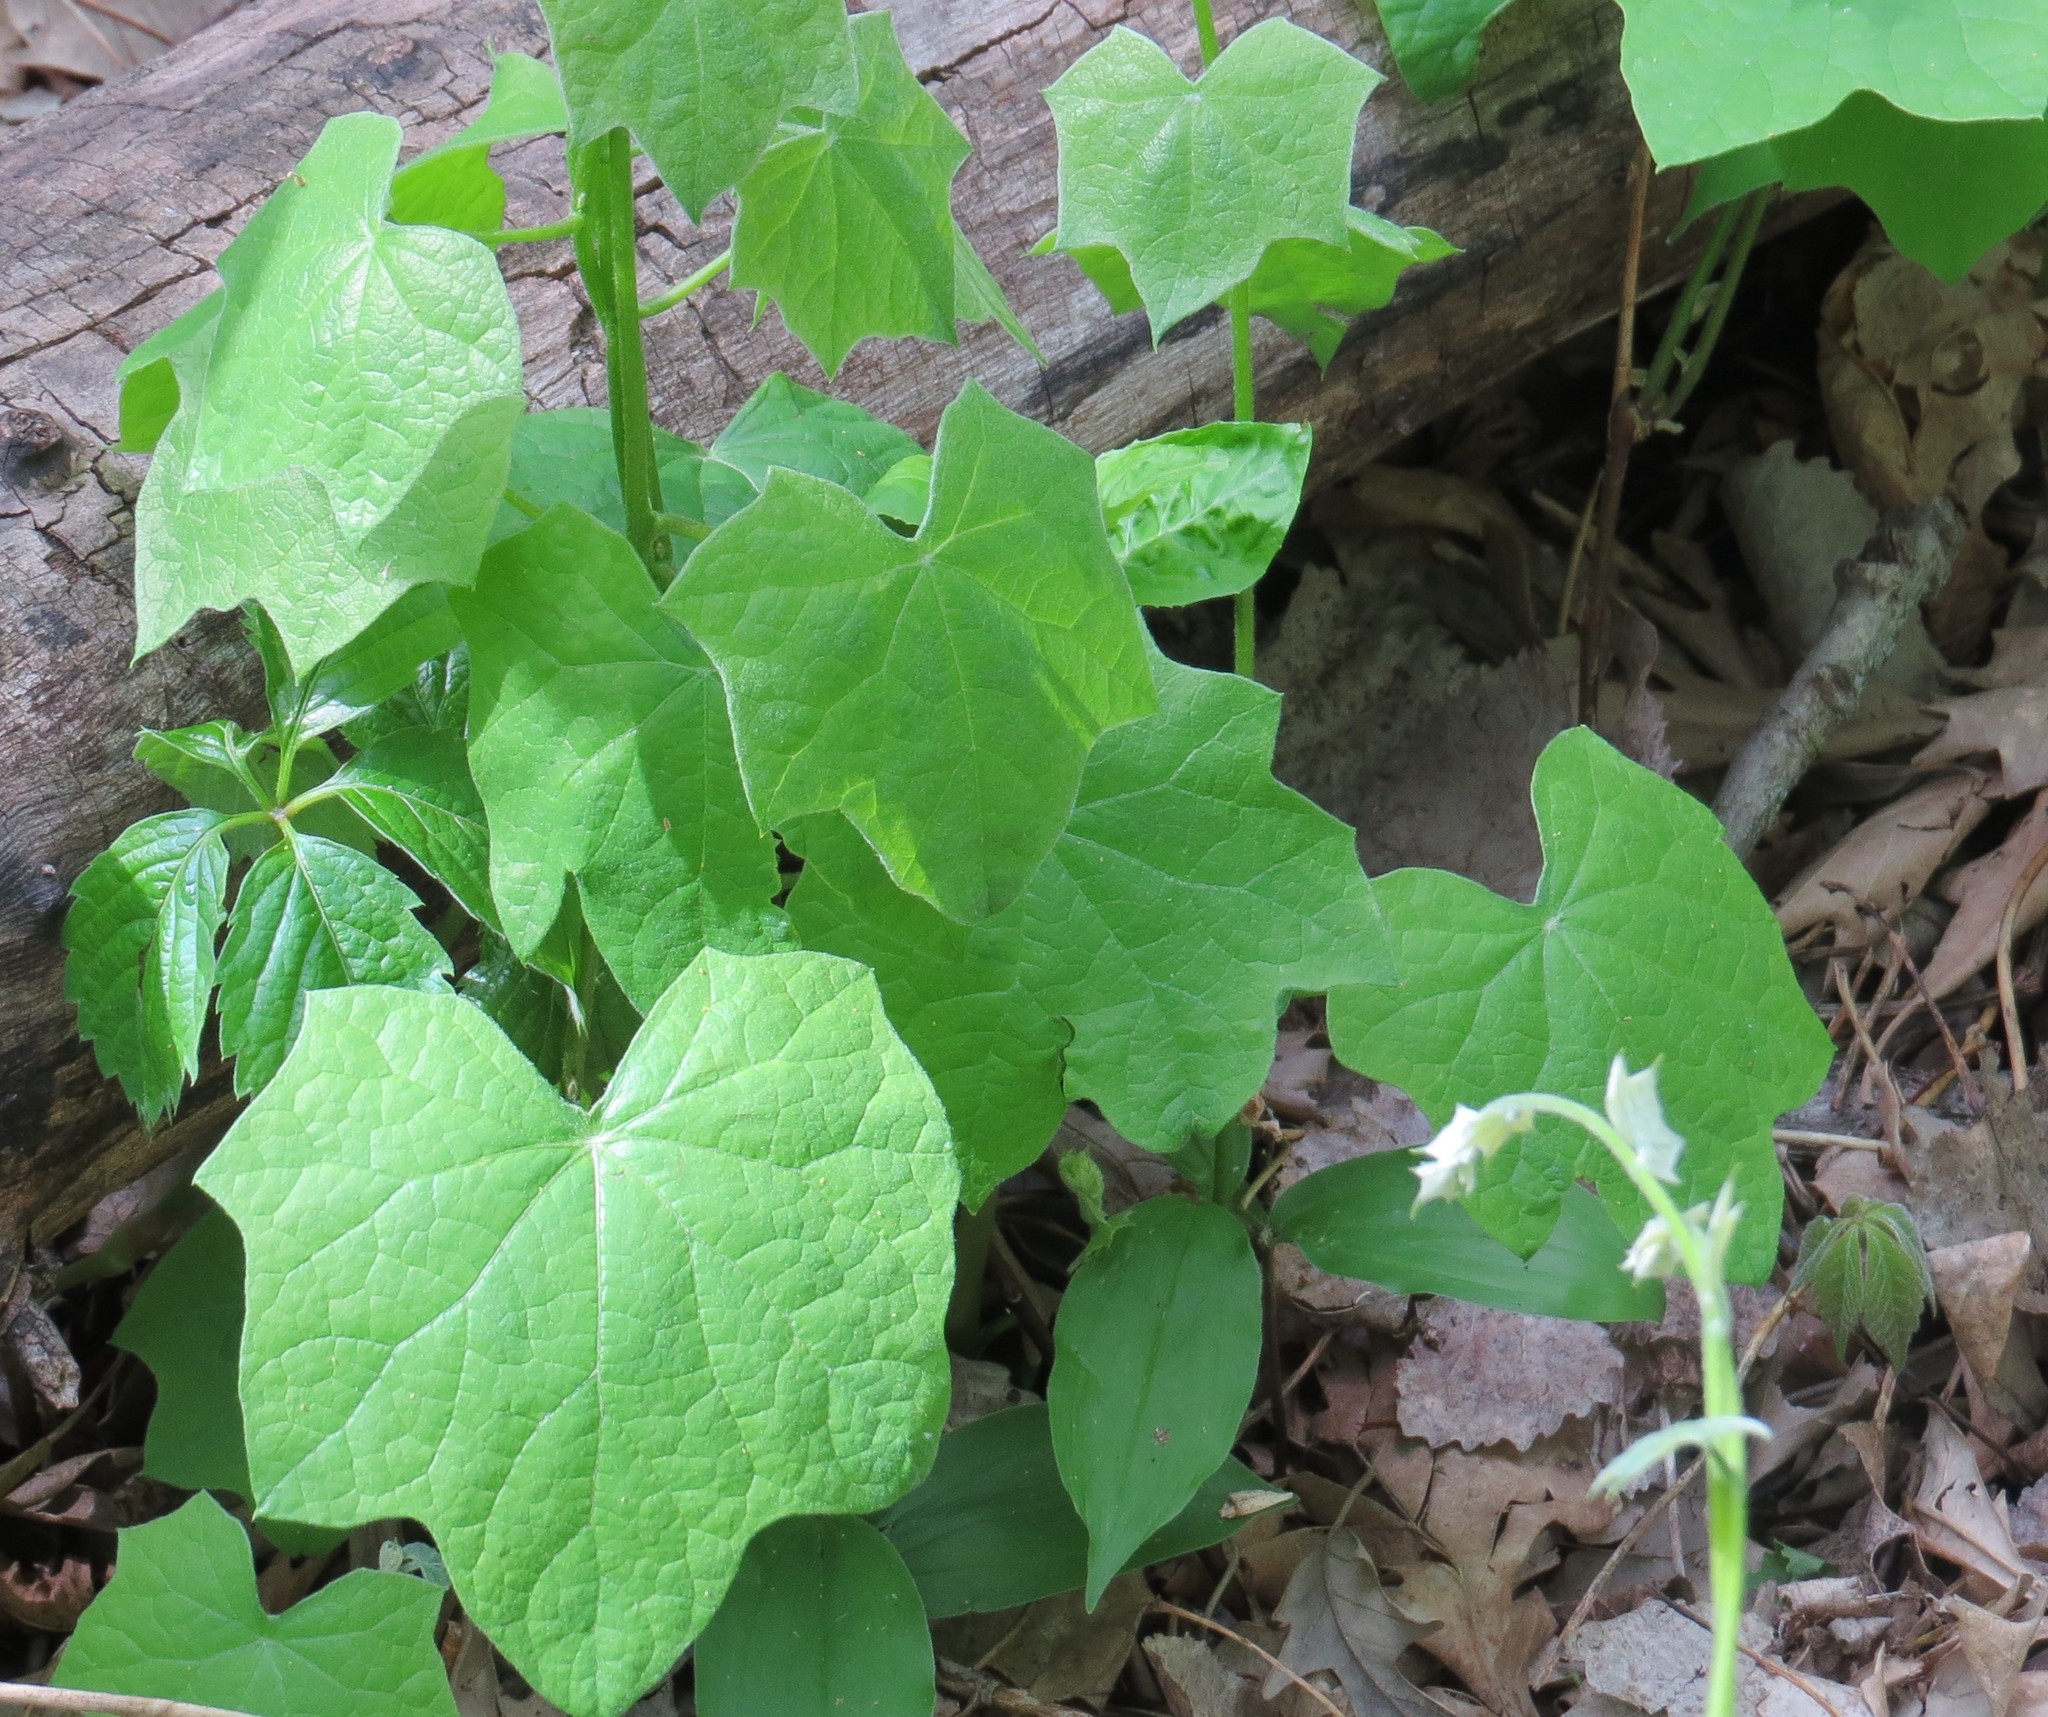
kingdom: Plantae
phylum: Tracheophyta
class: Magnoliopsida
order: Ranunculales
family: Menispermaceae
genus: Menispermum
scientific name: Menispermum canadense
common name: Moonseed
